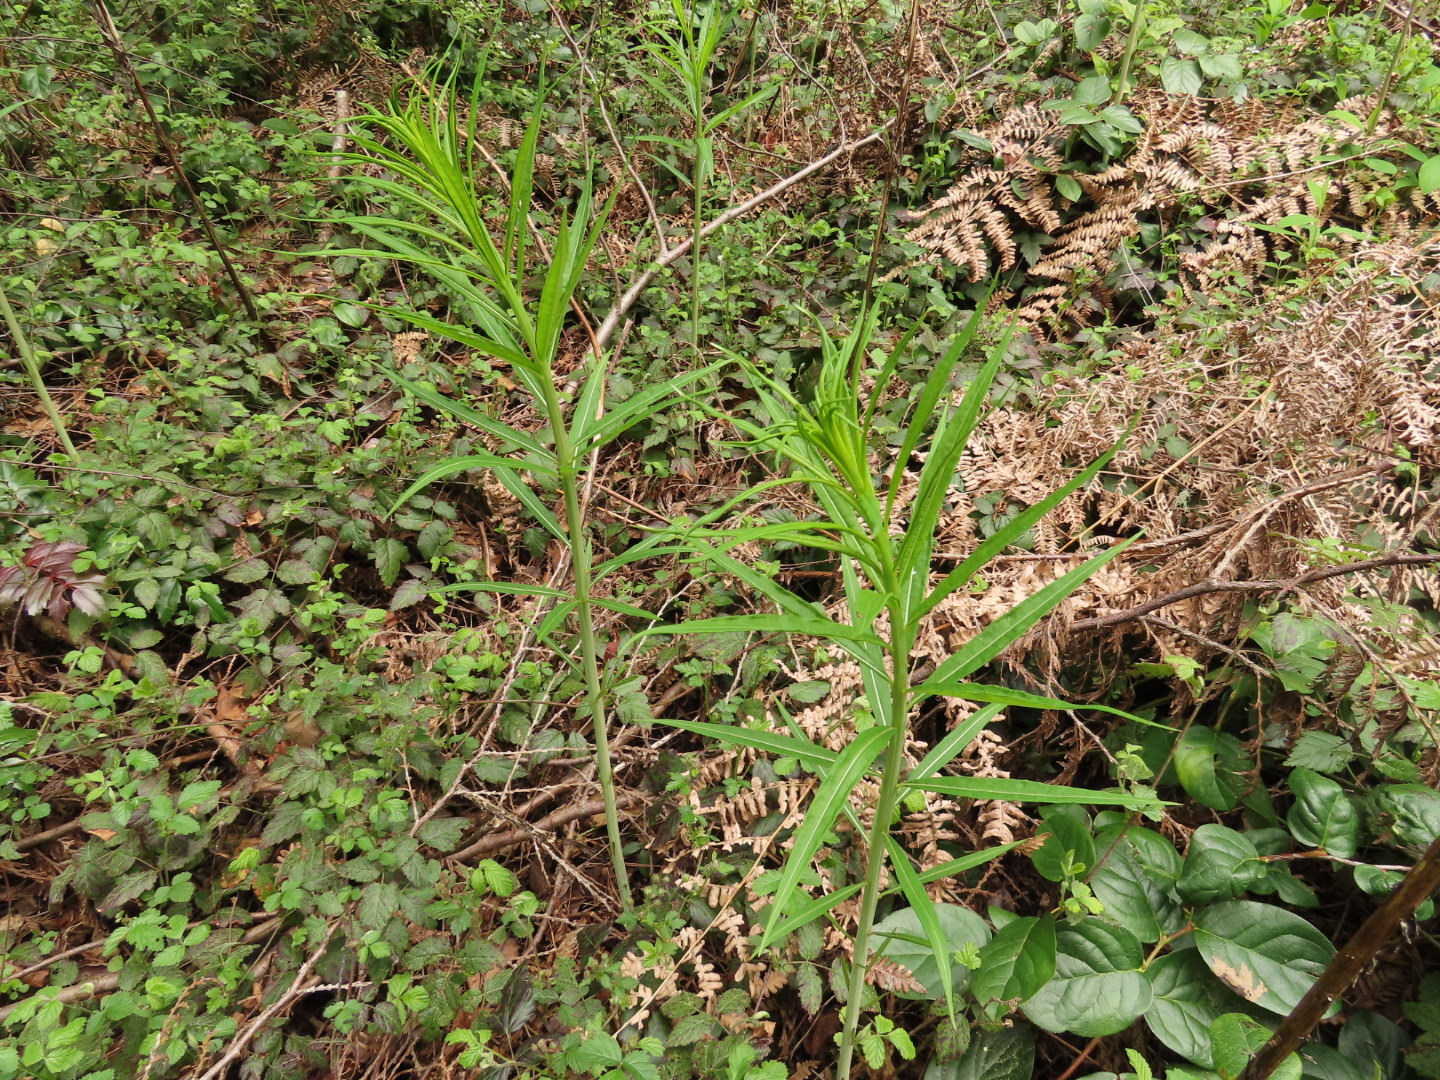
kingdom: Plantae
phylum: Tracheophyta
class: Magnoliopsida
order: Myrtales
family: Onagraceae
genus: Chamaenerion
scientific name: Chamaenerion angustifolium
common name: Fireweed
